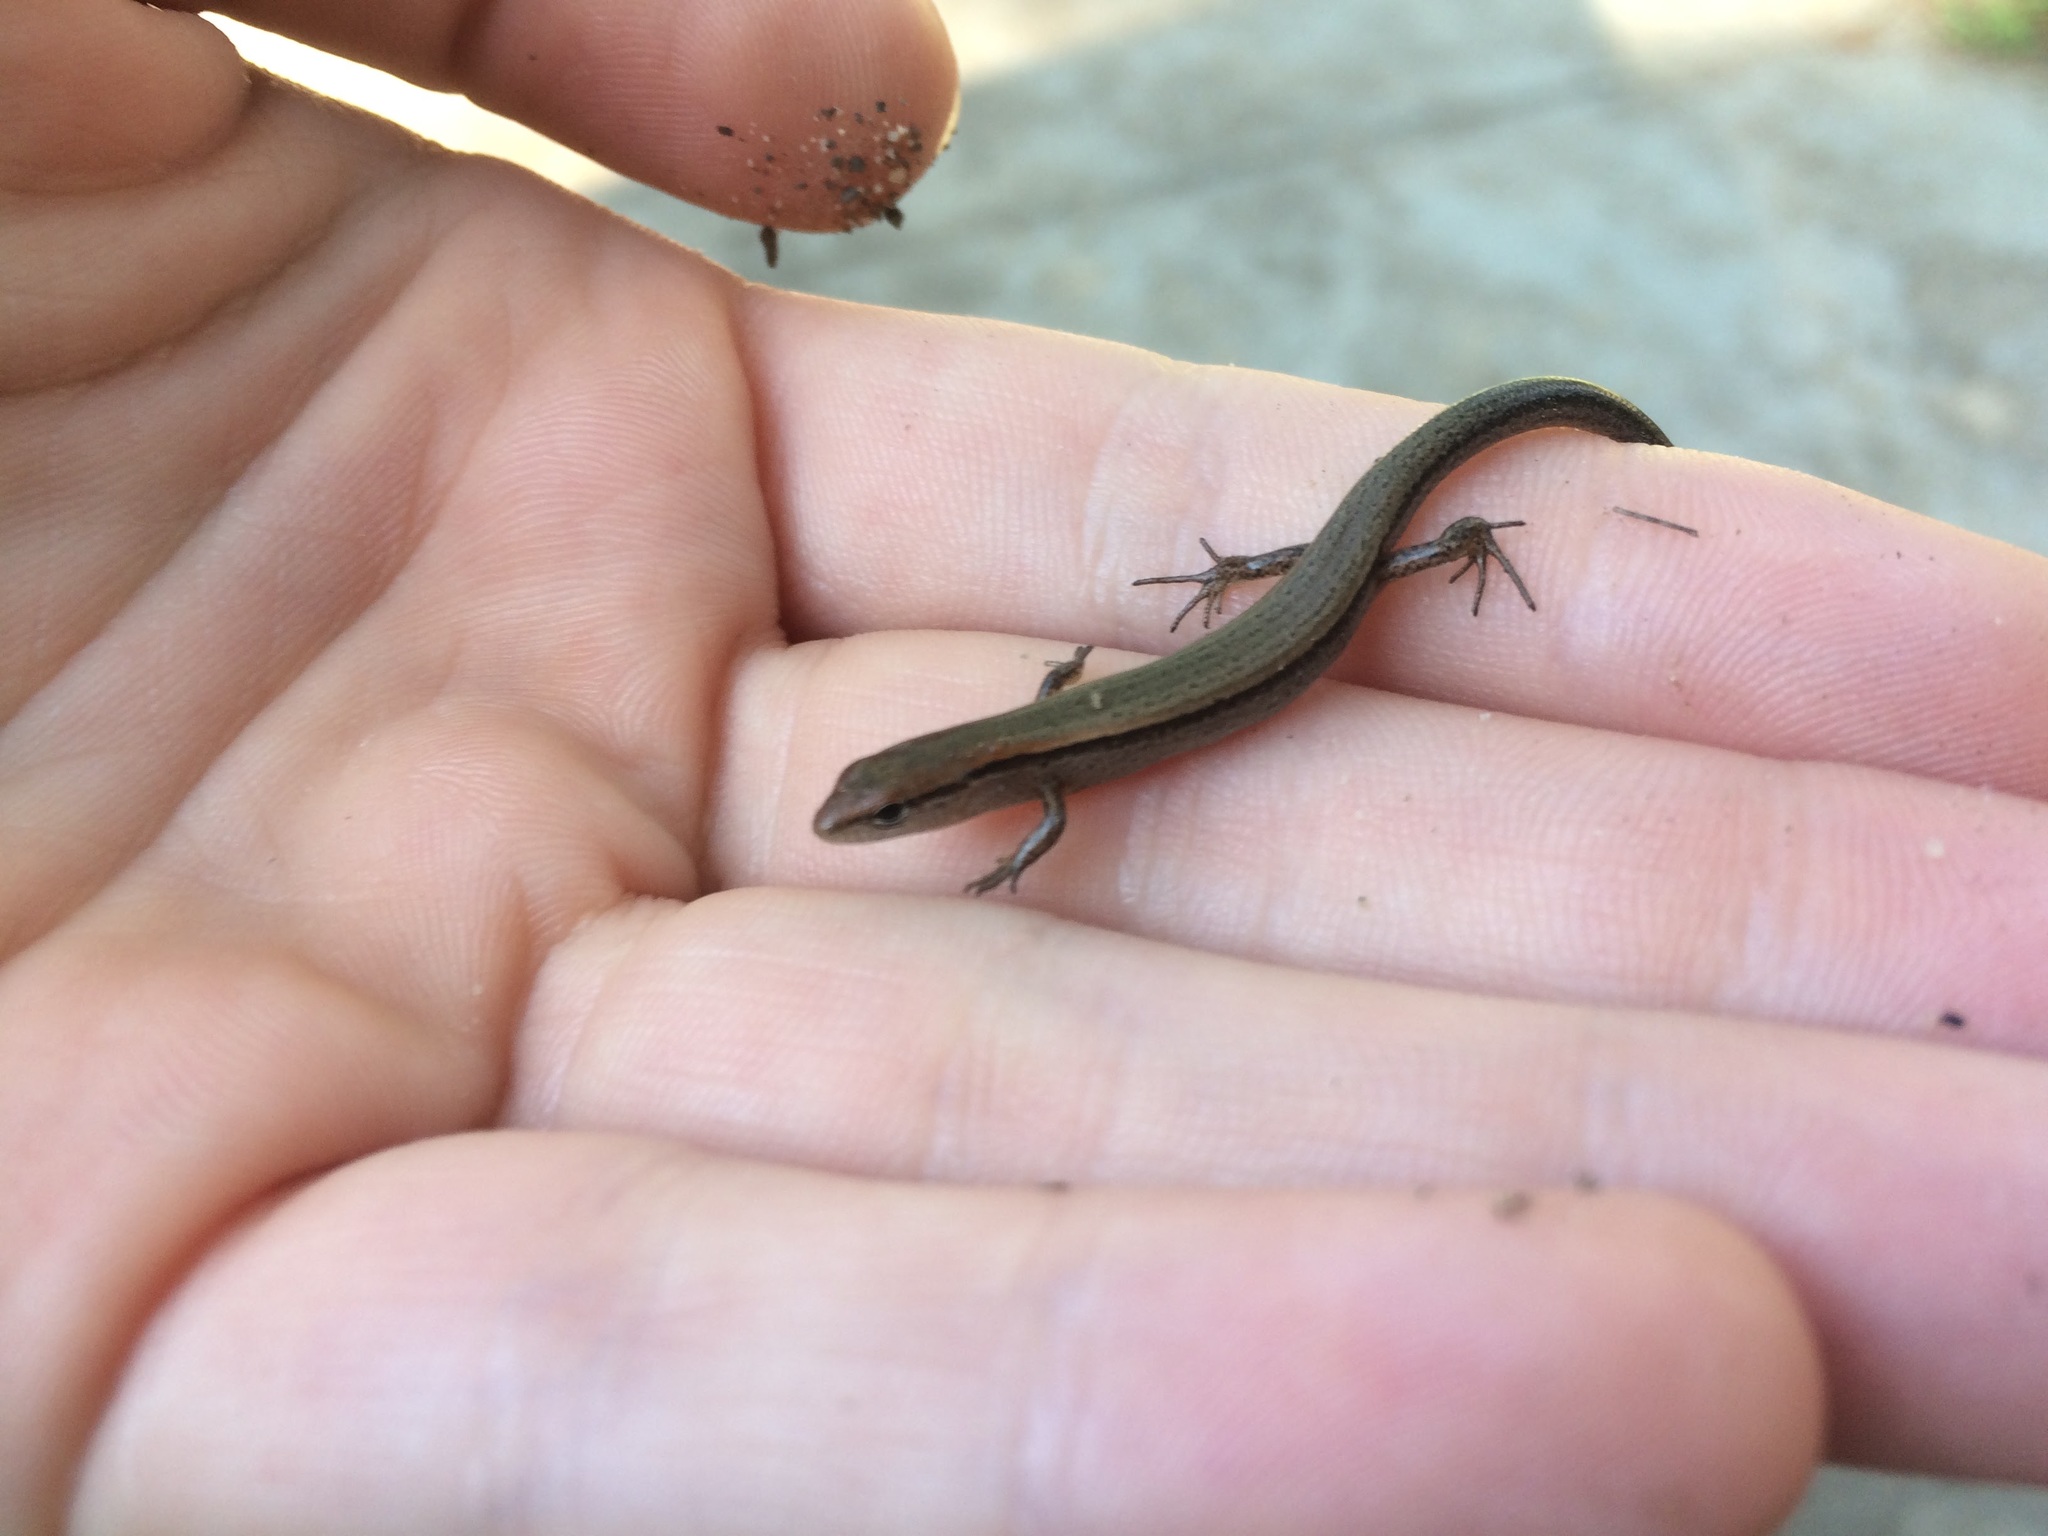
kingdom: Animalia
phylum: Chordata
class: Squamata
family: Scincidae
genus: Scincella
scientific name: Scincella lateralis
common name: Ground skink
